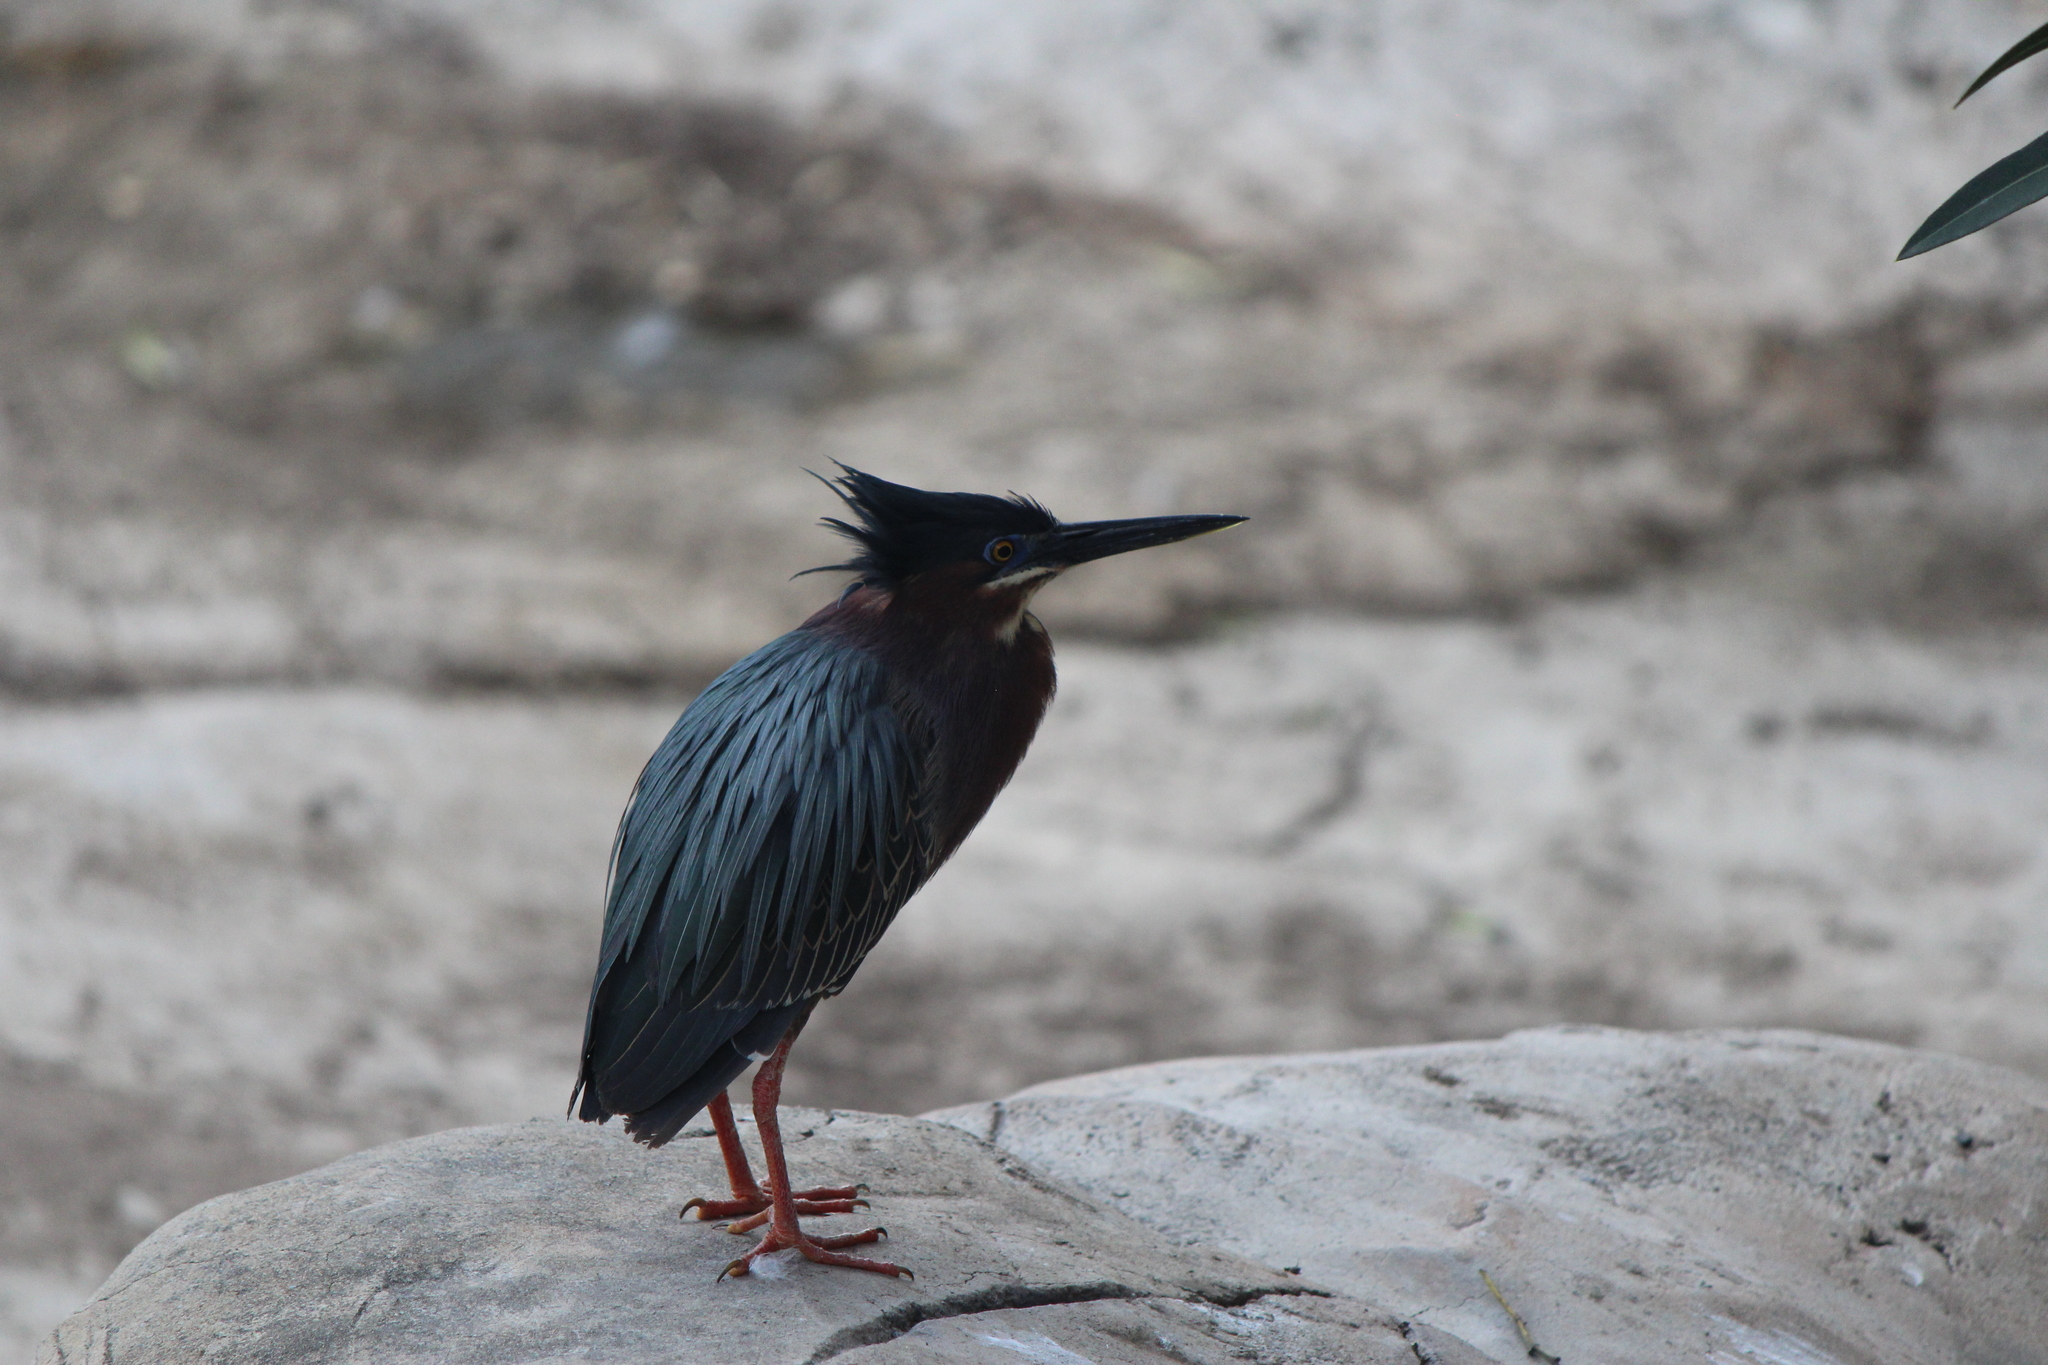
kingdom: Animalia
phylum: Chordata
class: Aves
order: Pelecaniformes
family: Ardeidae
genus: Butorides
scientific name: Butorides virescens
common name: Green heron
